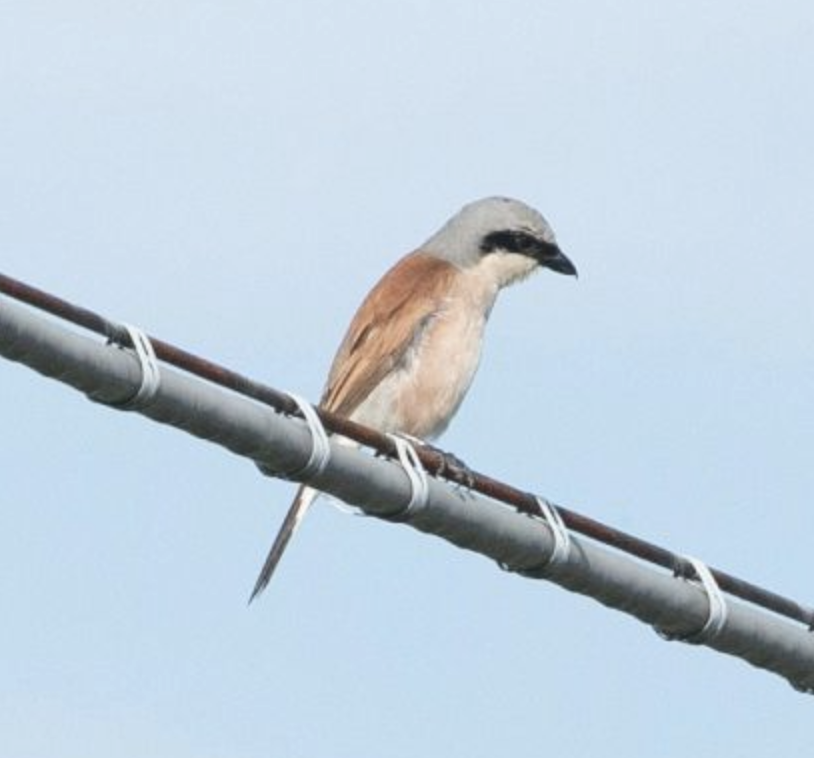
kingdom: Animalia
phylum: Chordata
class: Aves
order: Passeriformes
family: Laniidae
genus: Lanius
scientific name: Lanius collurio
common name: Red-backed shrike
